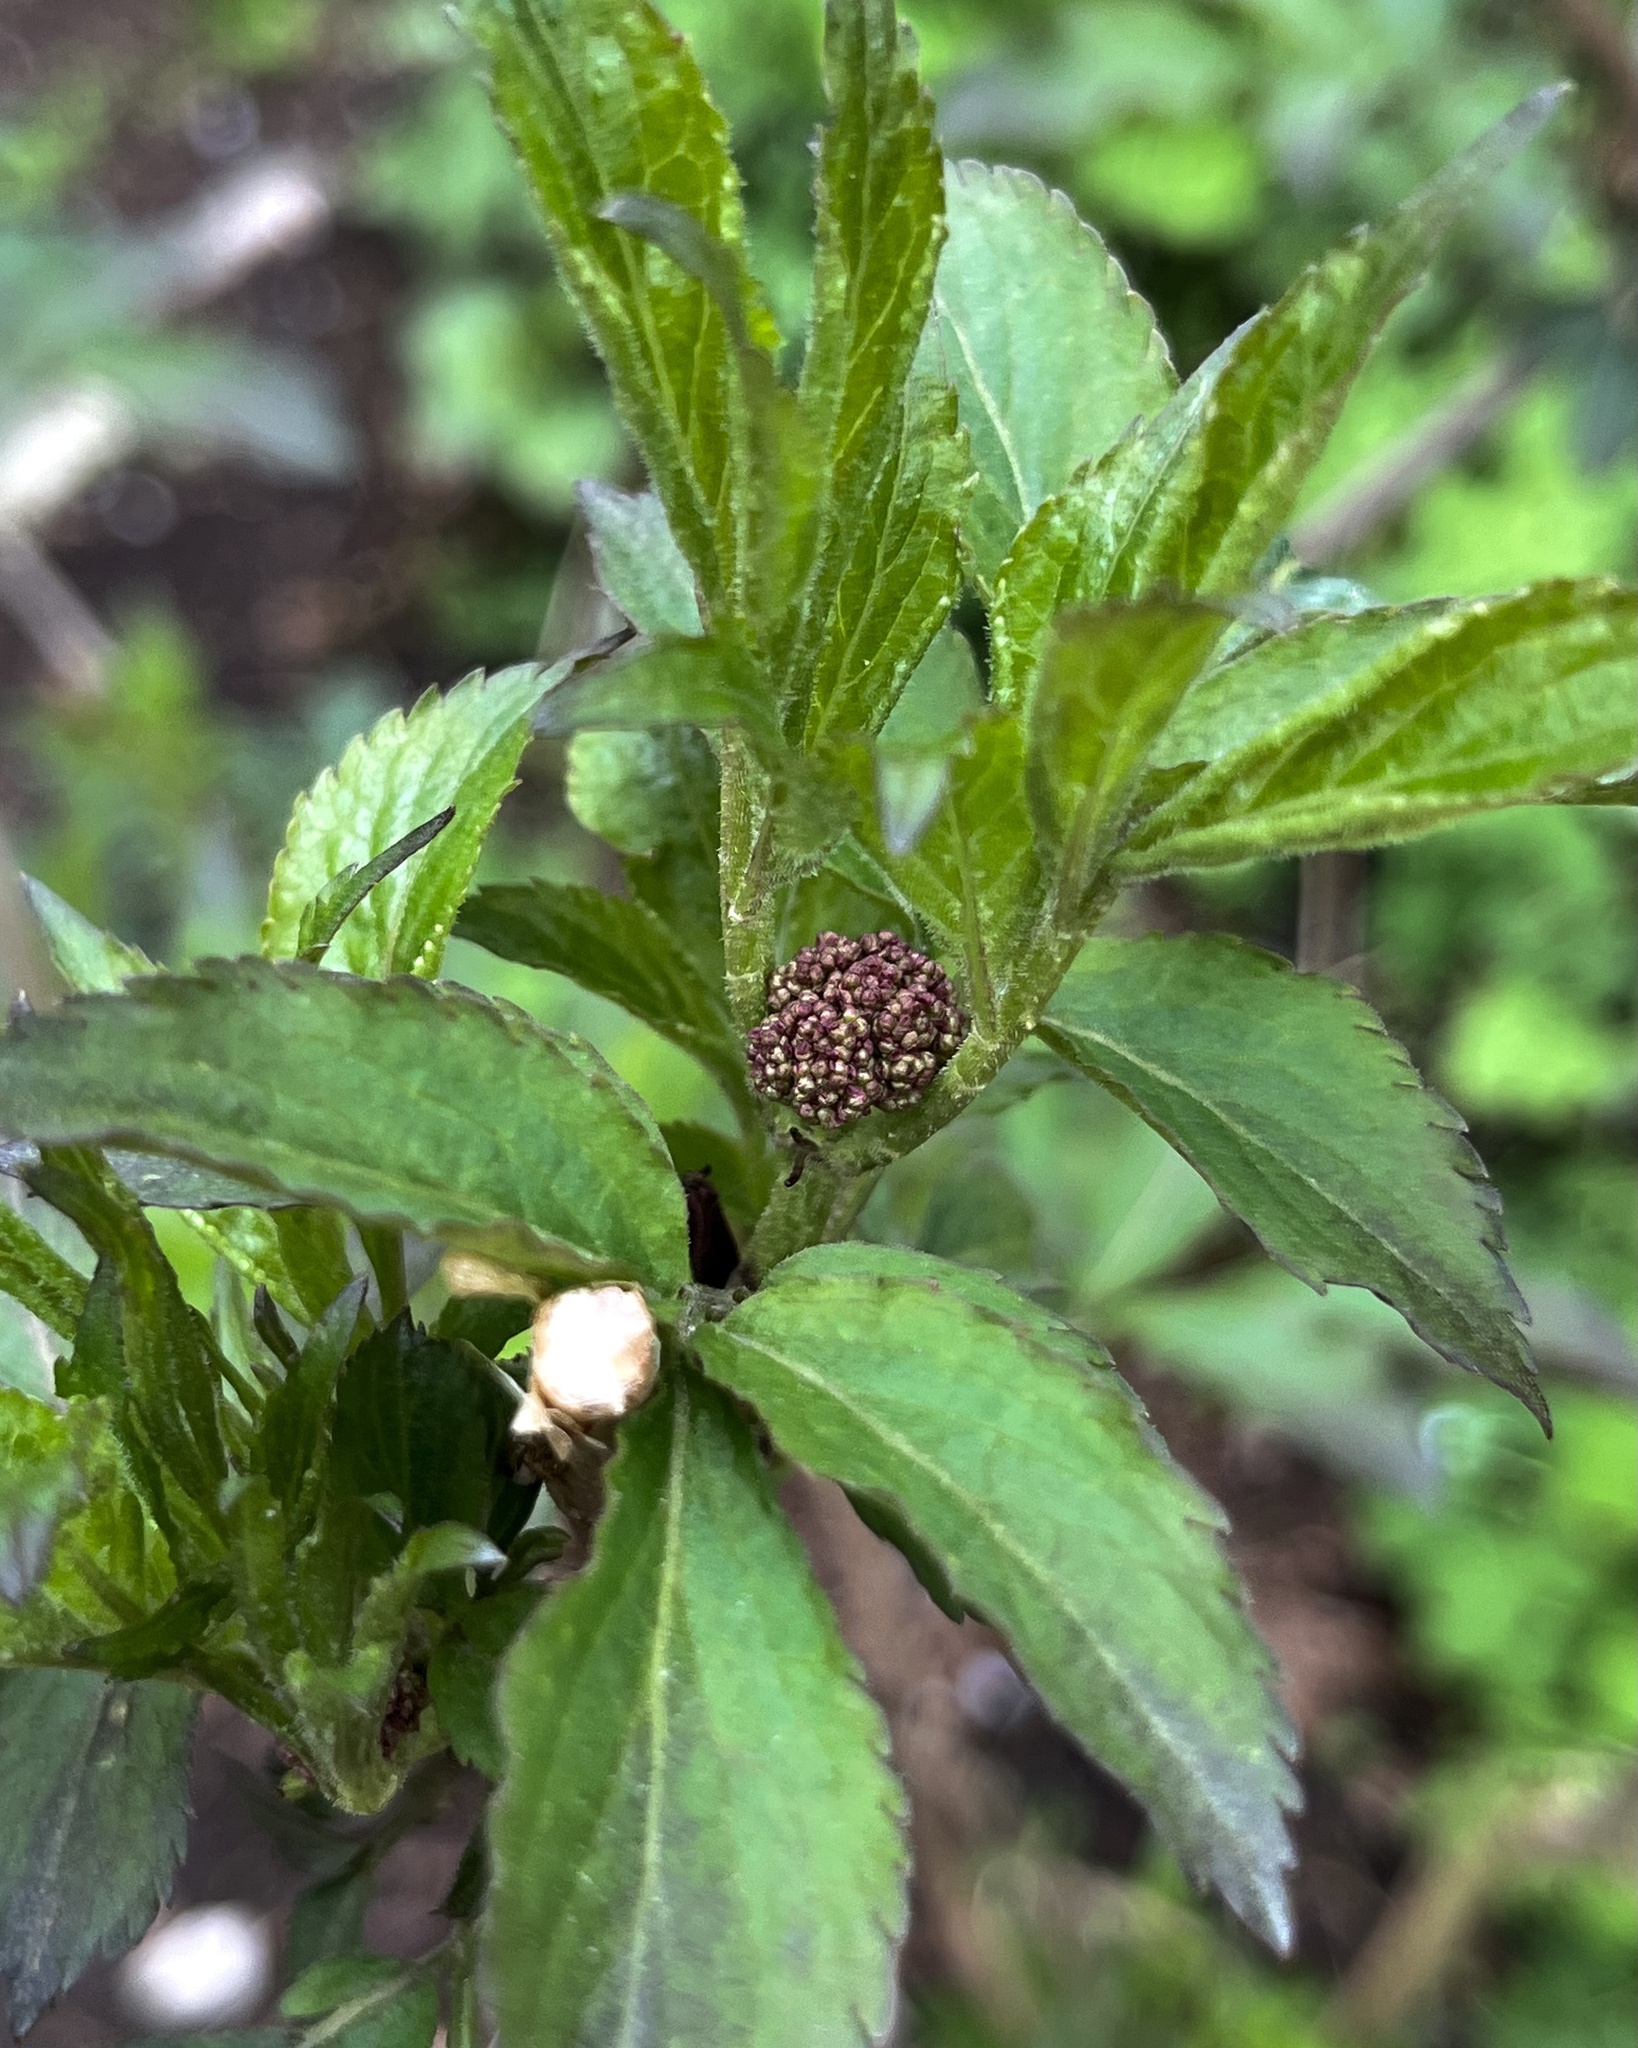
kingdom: Plantae
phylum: Tracheophyta
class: Magnoliopsida
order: Dipsacales
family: Viburnaceae
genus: Sambucus
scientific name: Sambucus racemosa
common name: Red-berried elder
